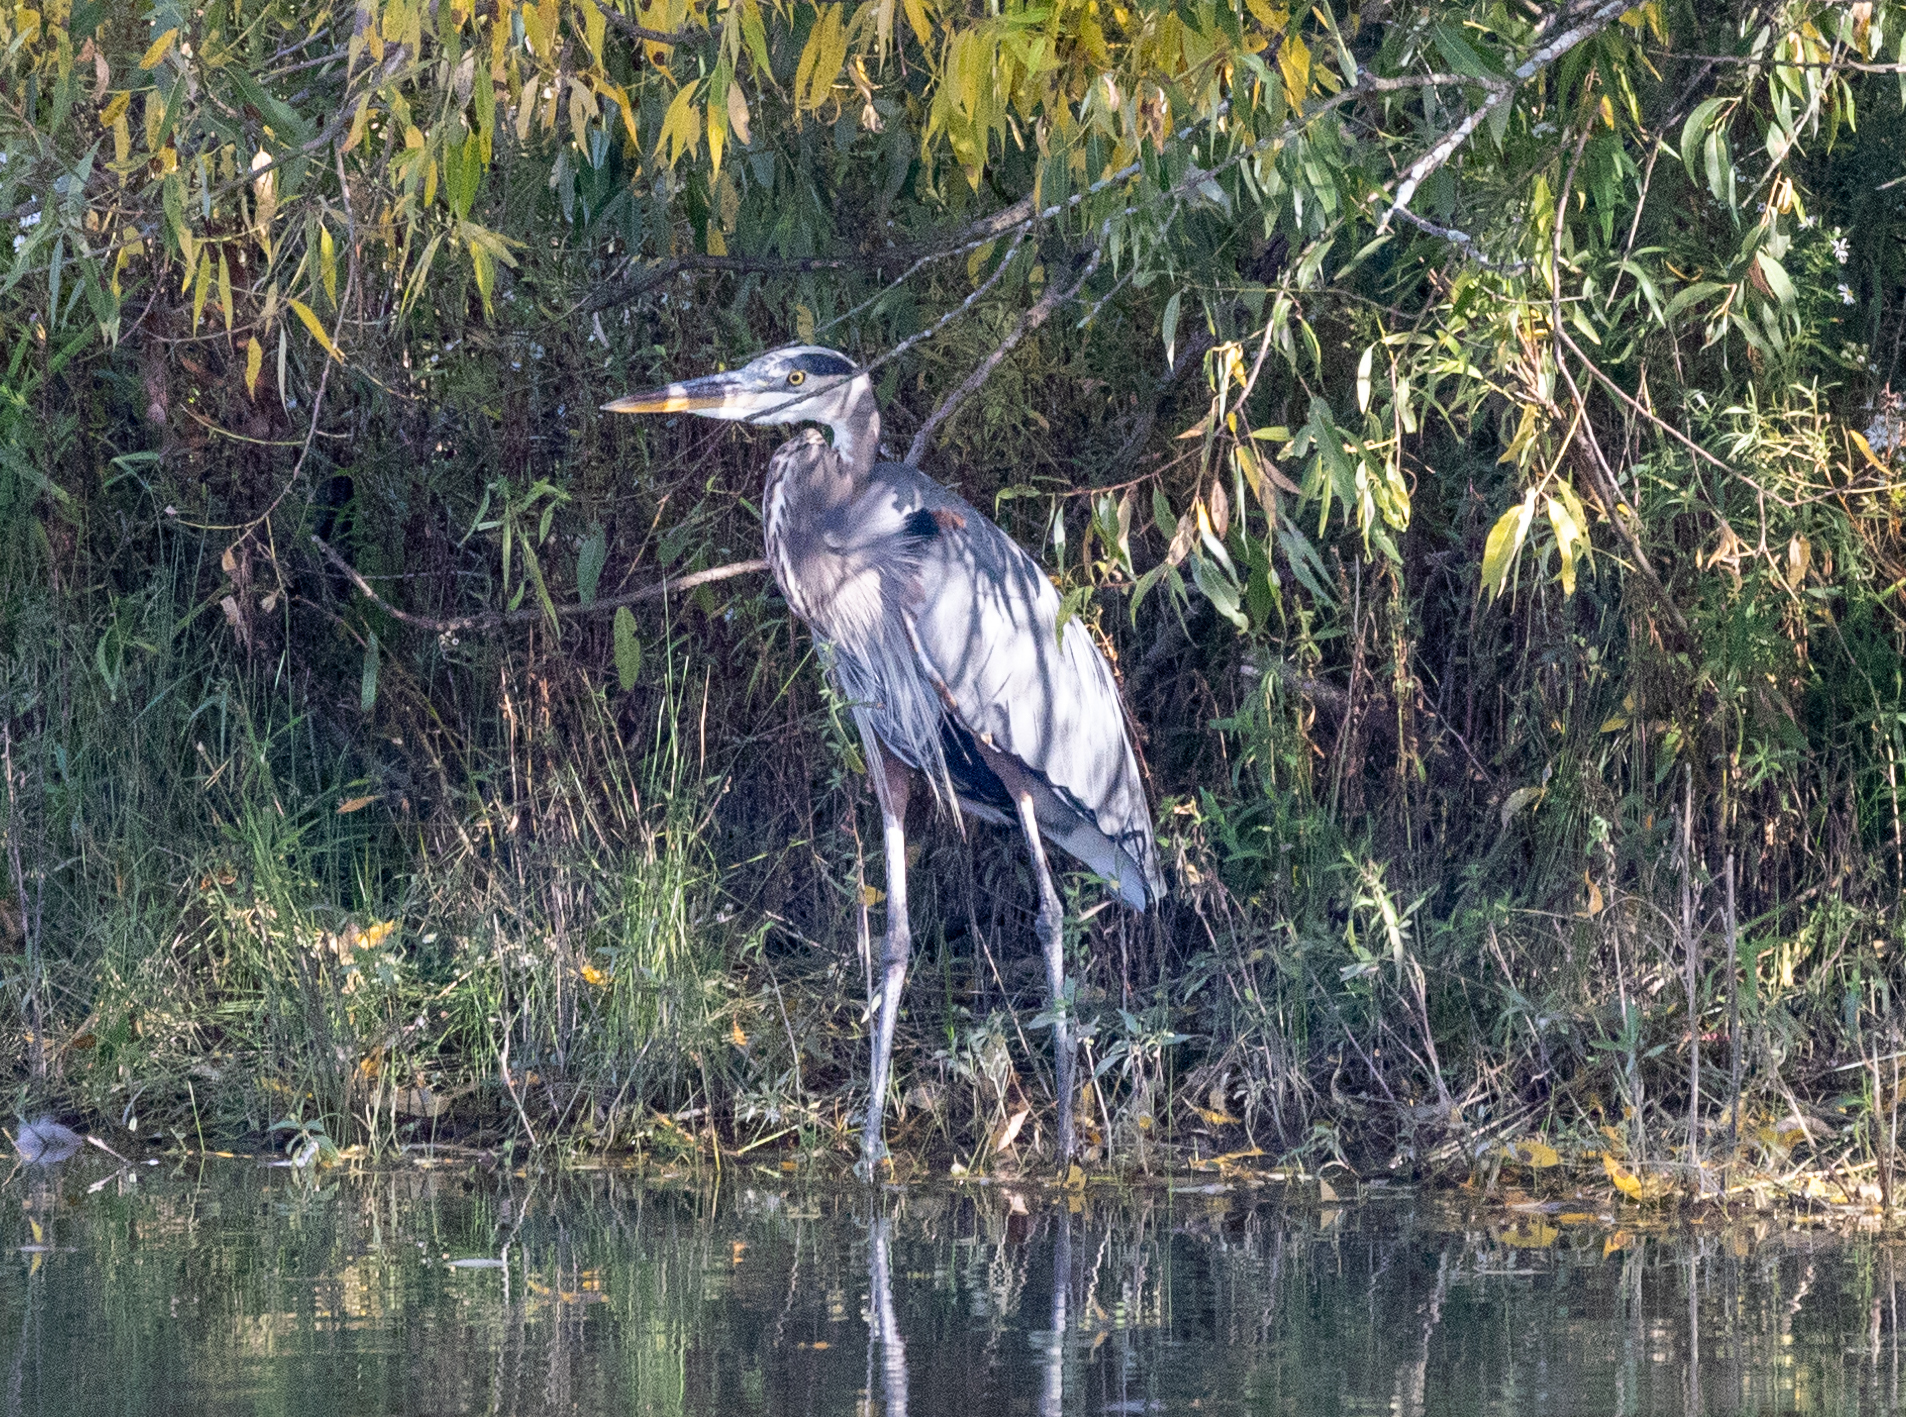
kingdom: Animalia
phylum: Chordata
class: Aves
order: Pelecaniformes
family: Ardeidae
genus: Ardea
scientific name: Ardea herodias
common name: Great blue heron
